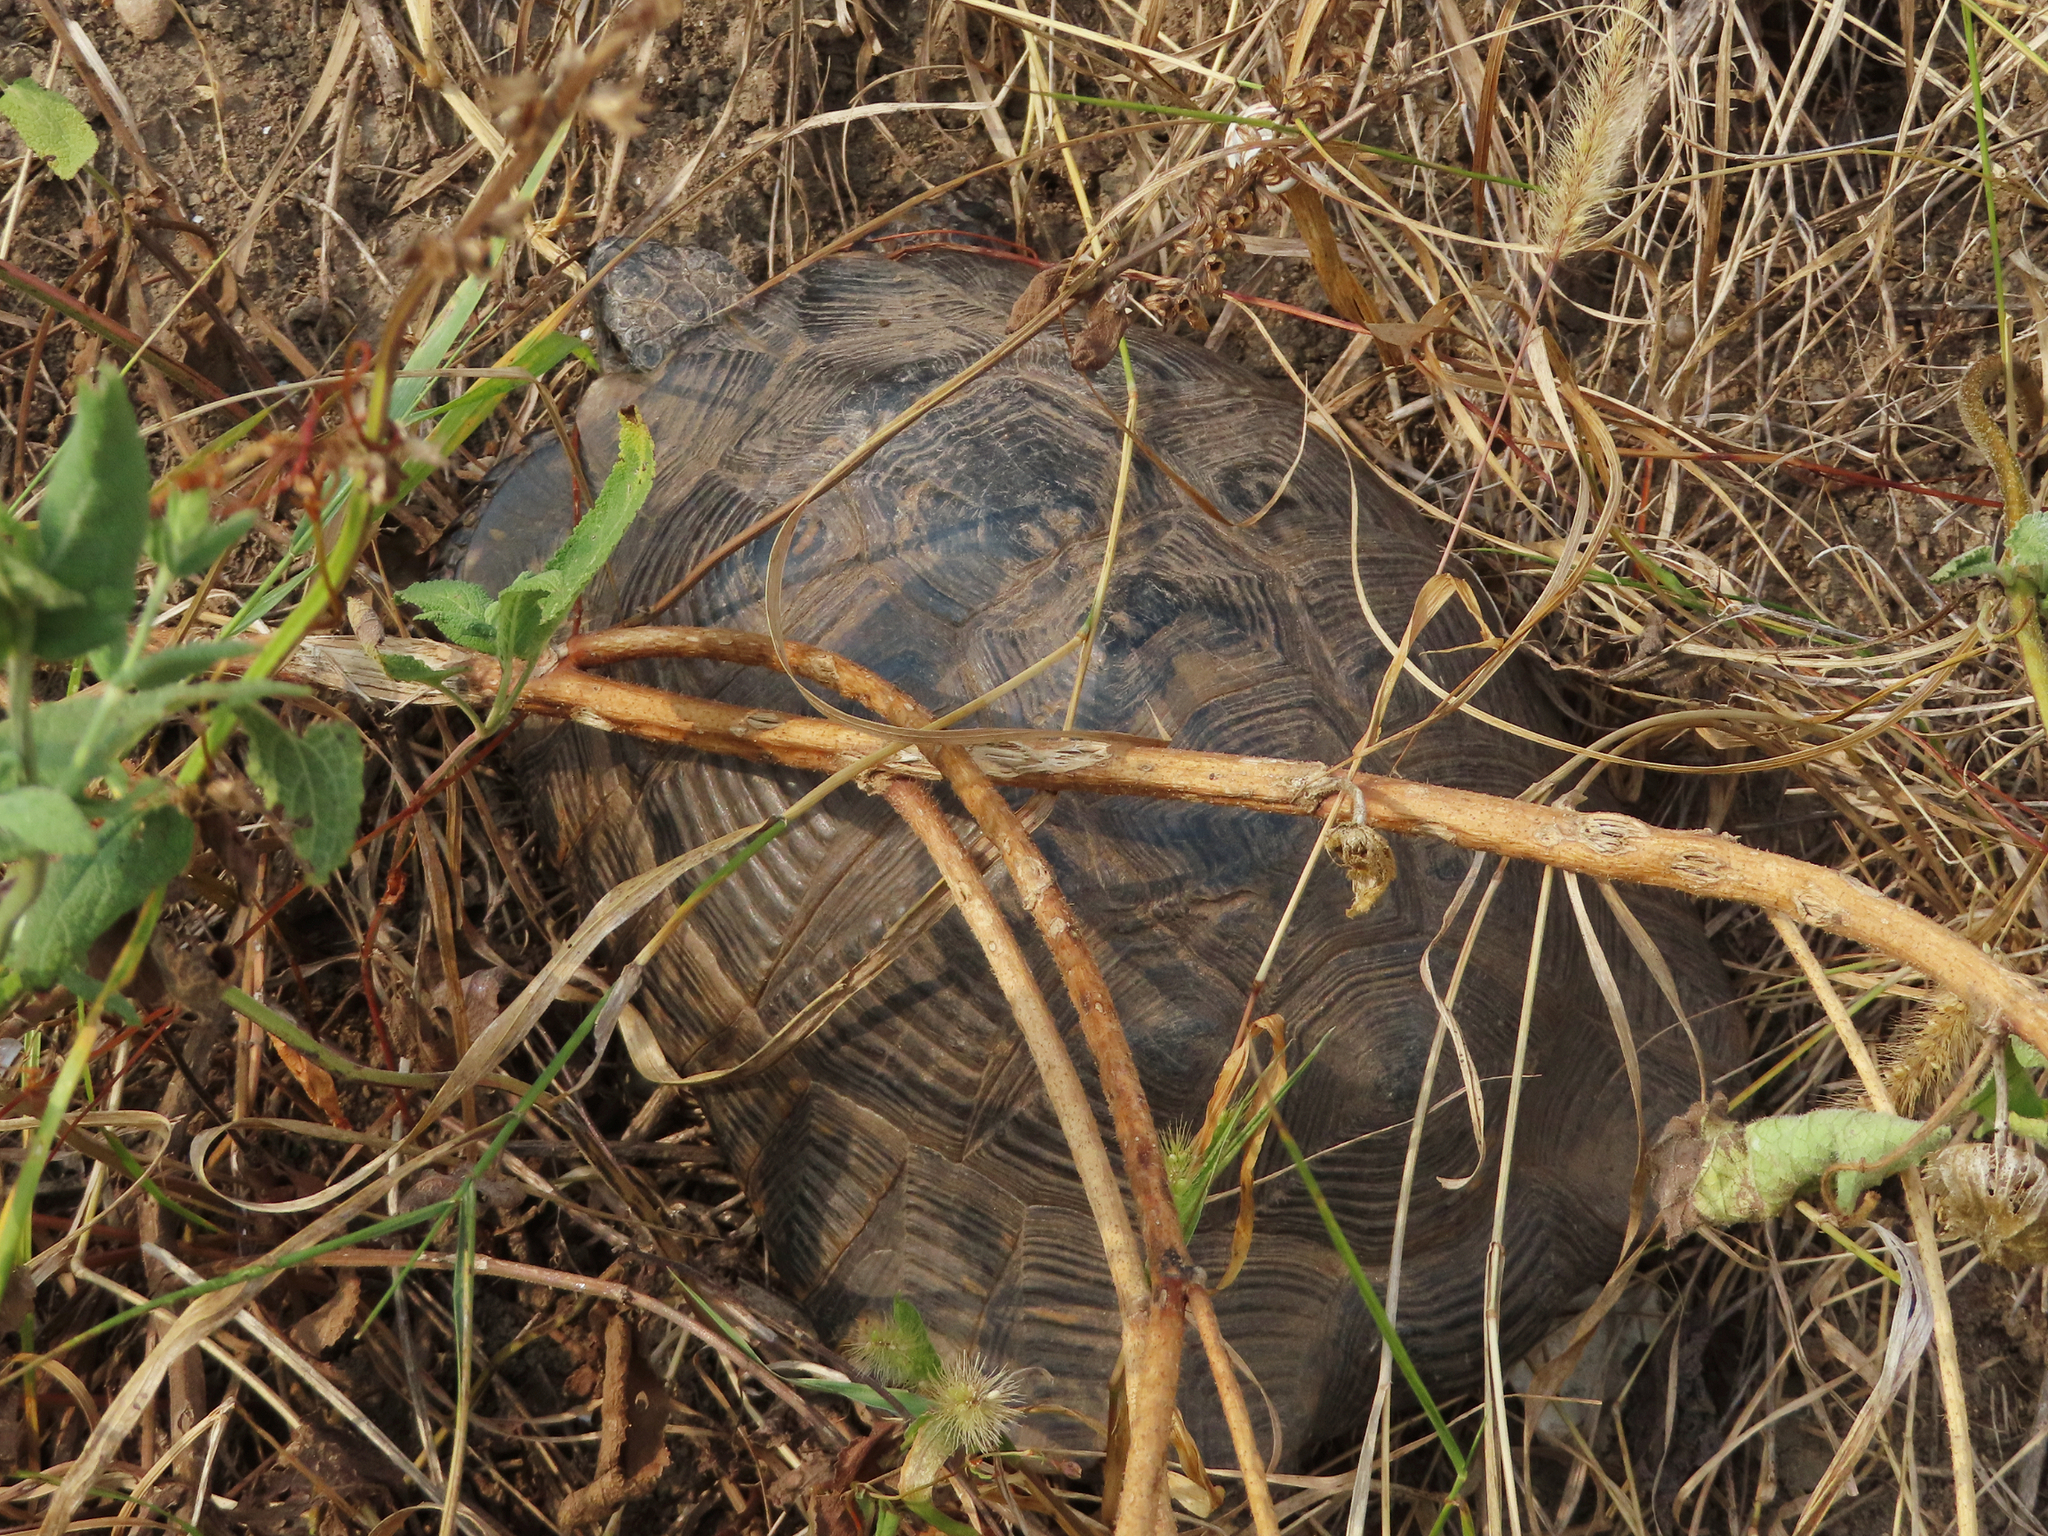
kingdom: Animalia
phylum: Chordata
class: Testudines
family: Testudinidae
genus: Testudo
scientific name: Testudo graeca
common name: Common tortoise
